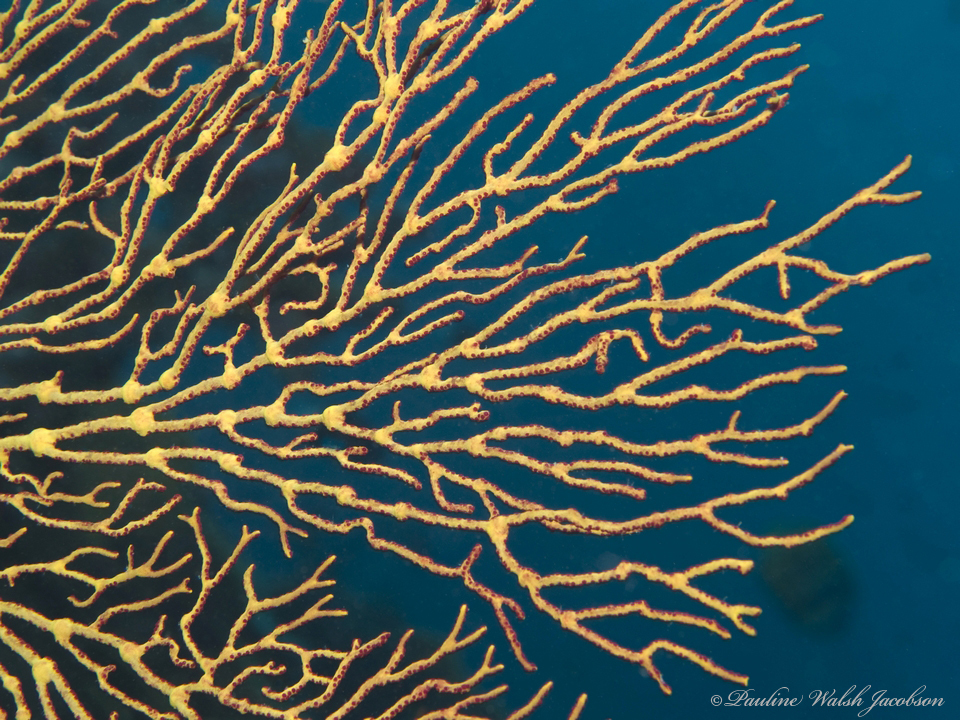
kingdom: Animalia
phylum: Cnidaria
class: Anthozoa
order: Malacalcyonacea
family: Melithaeidae
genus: Melithaea
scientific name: Melithaea ochracea
